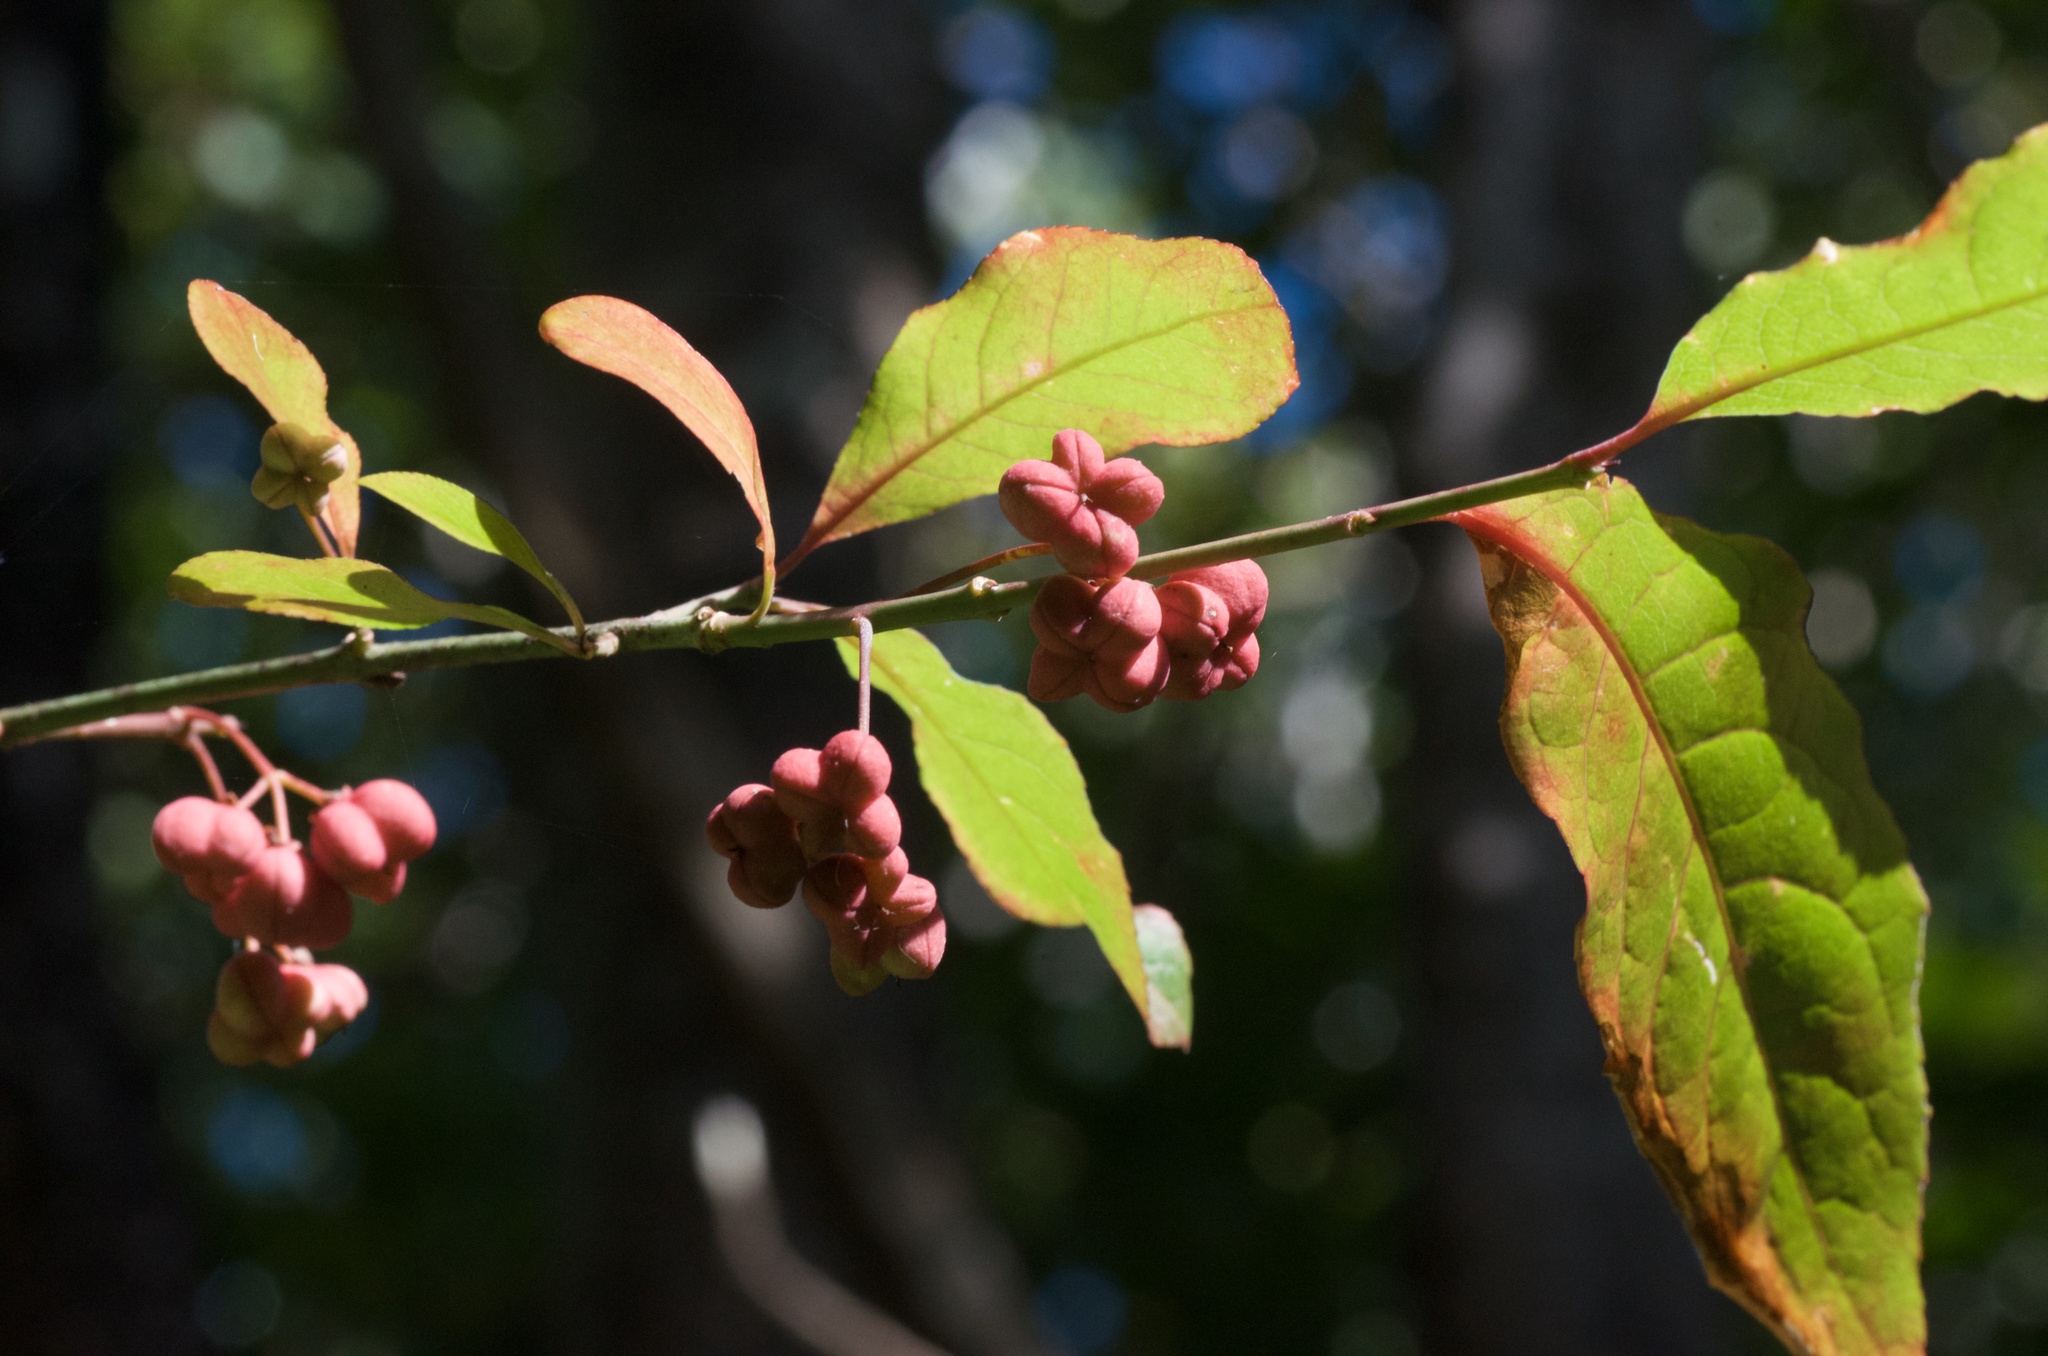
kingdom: Plantae
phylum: Tracheophyta
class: Magnoliopsida
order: Celastrales
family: Celastraceae
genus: Euonymus
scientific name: Euonymus europaeus
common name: Spindle
